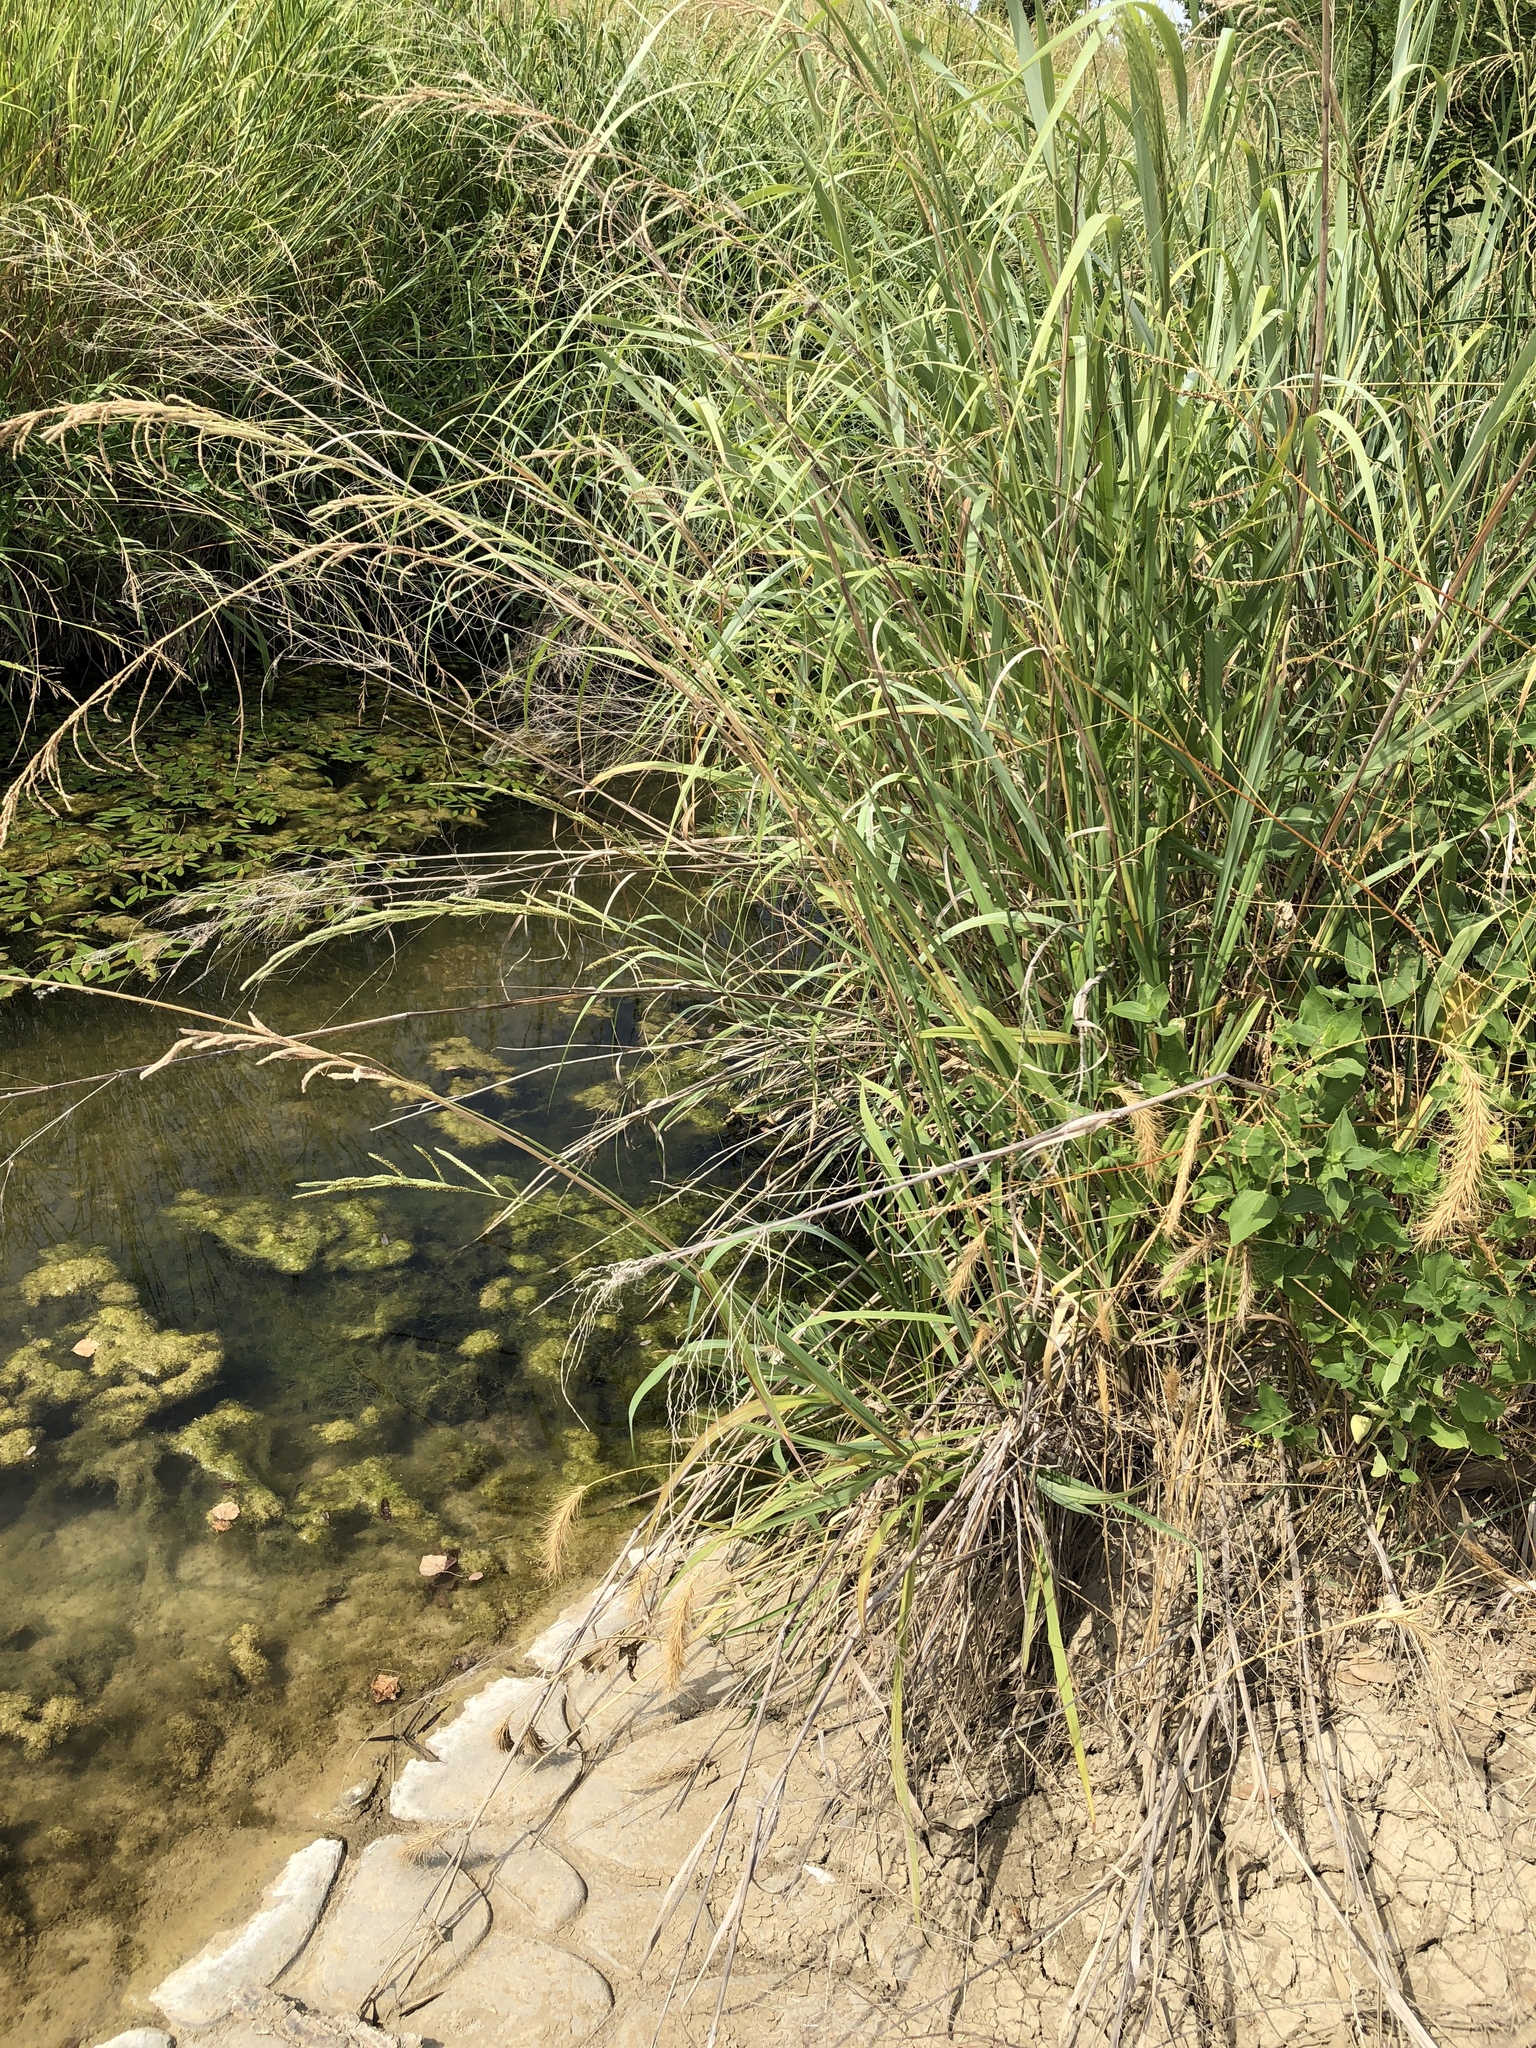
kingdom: Plantae
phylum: Tracheophyta
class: Liliopsida
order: Poales
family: Poaceae
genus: Paspalum
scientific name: Paspalum urvillei
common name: Vasey's grass
